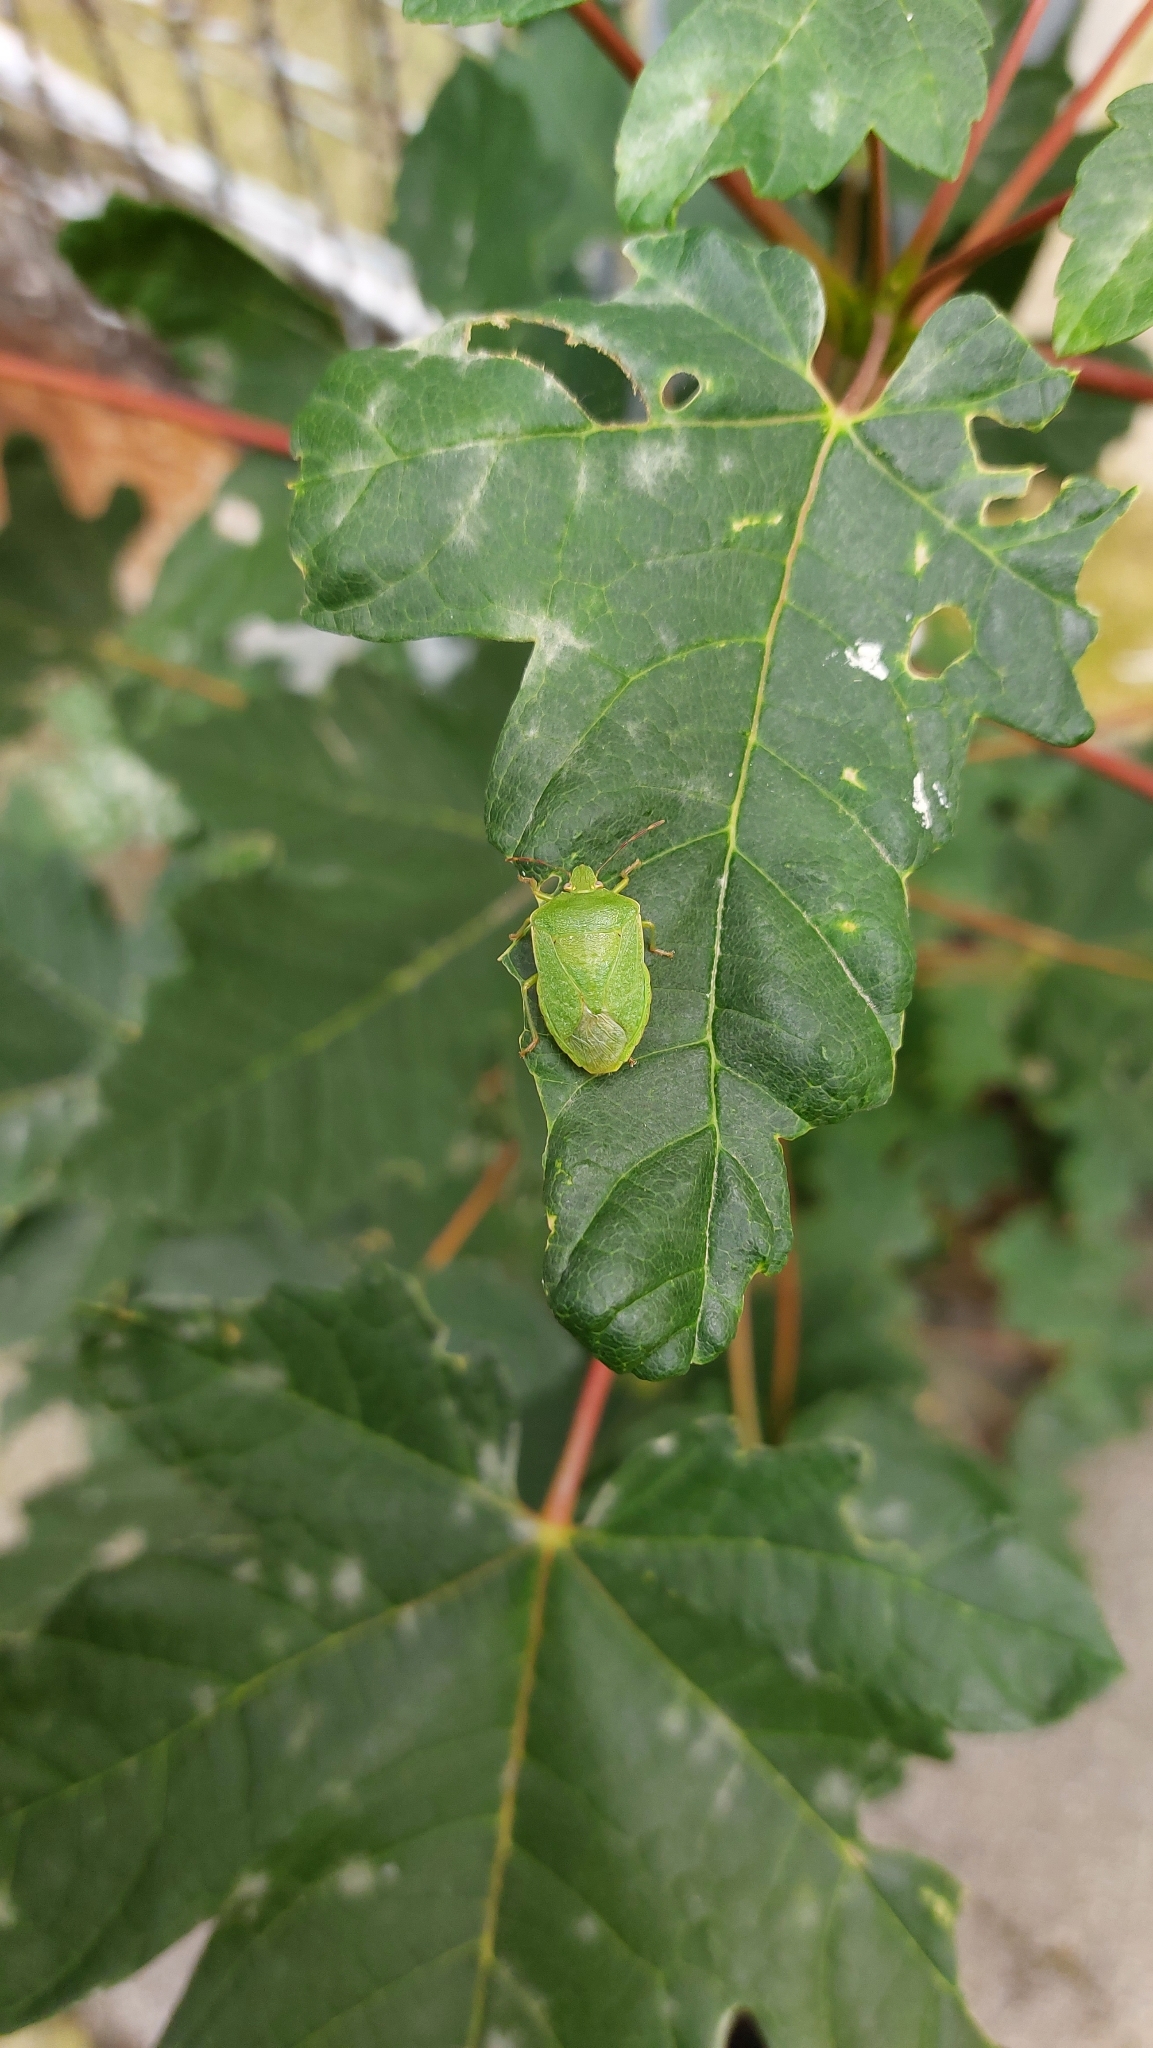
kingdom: Animalia
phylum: Arthropoda
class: Insecta
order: Hemiptera
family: Pentatomidae
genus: Nezara
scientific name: Nezara viridula
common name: Southern green stink bug
